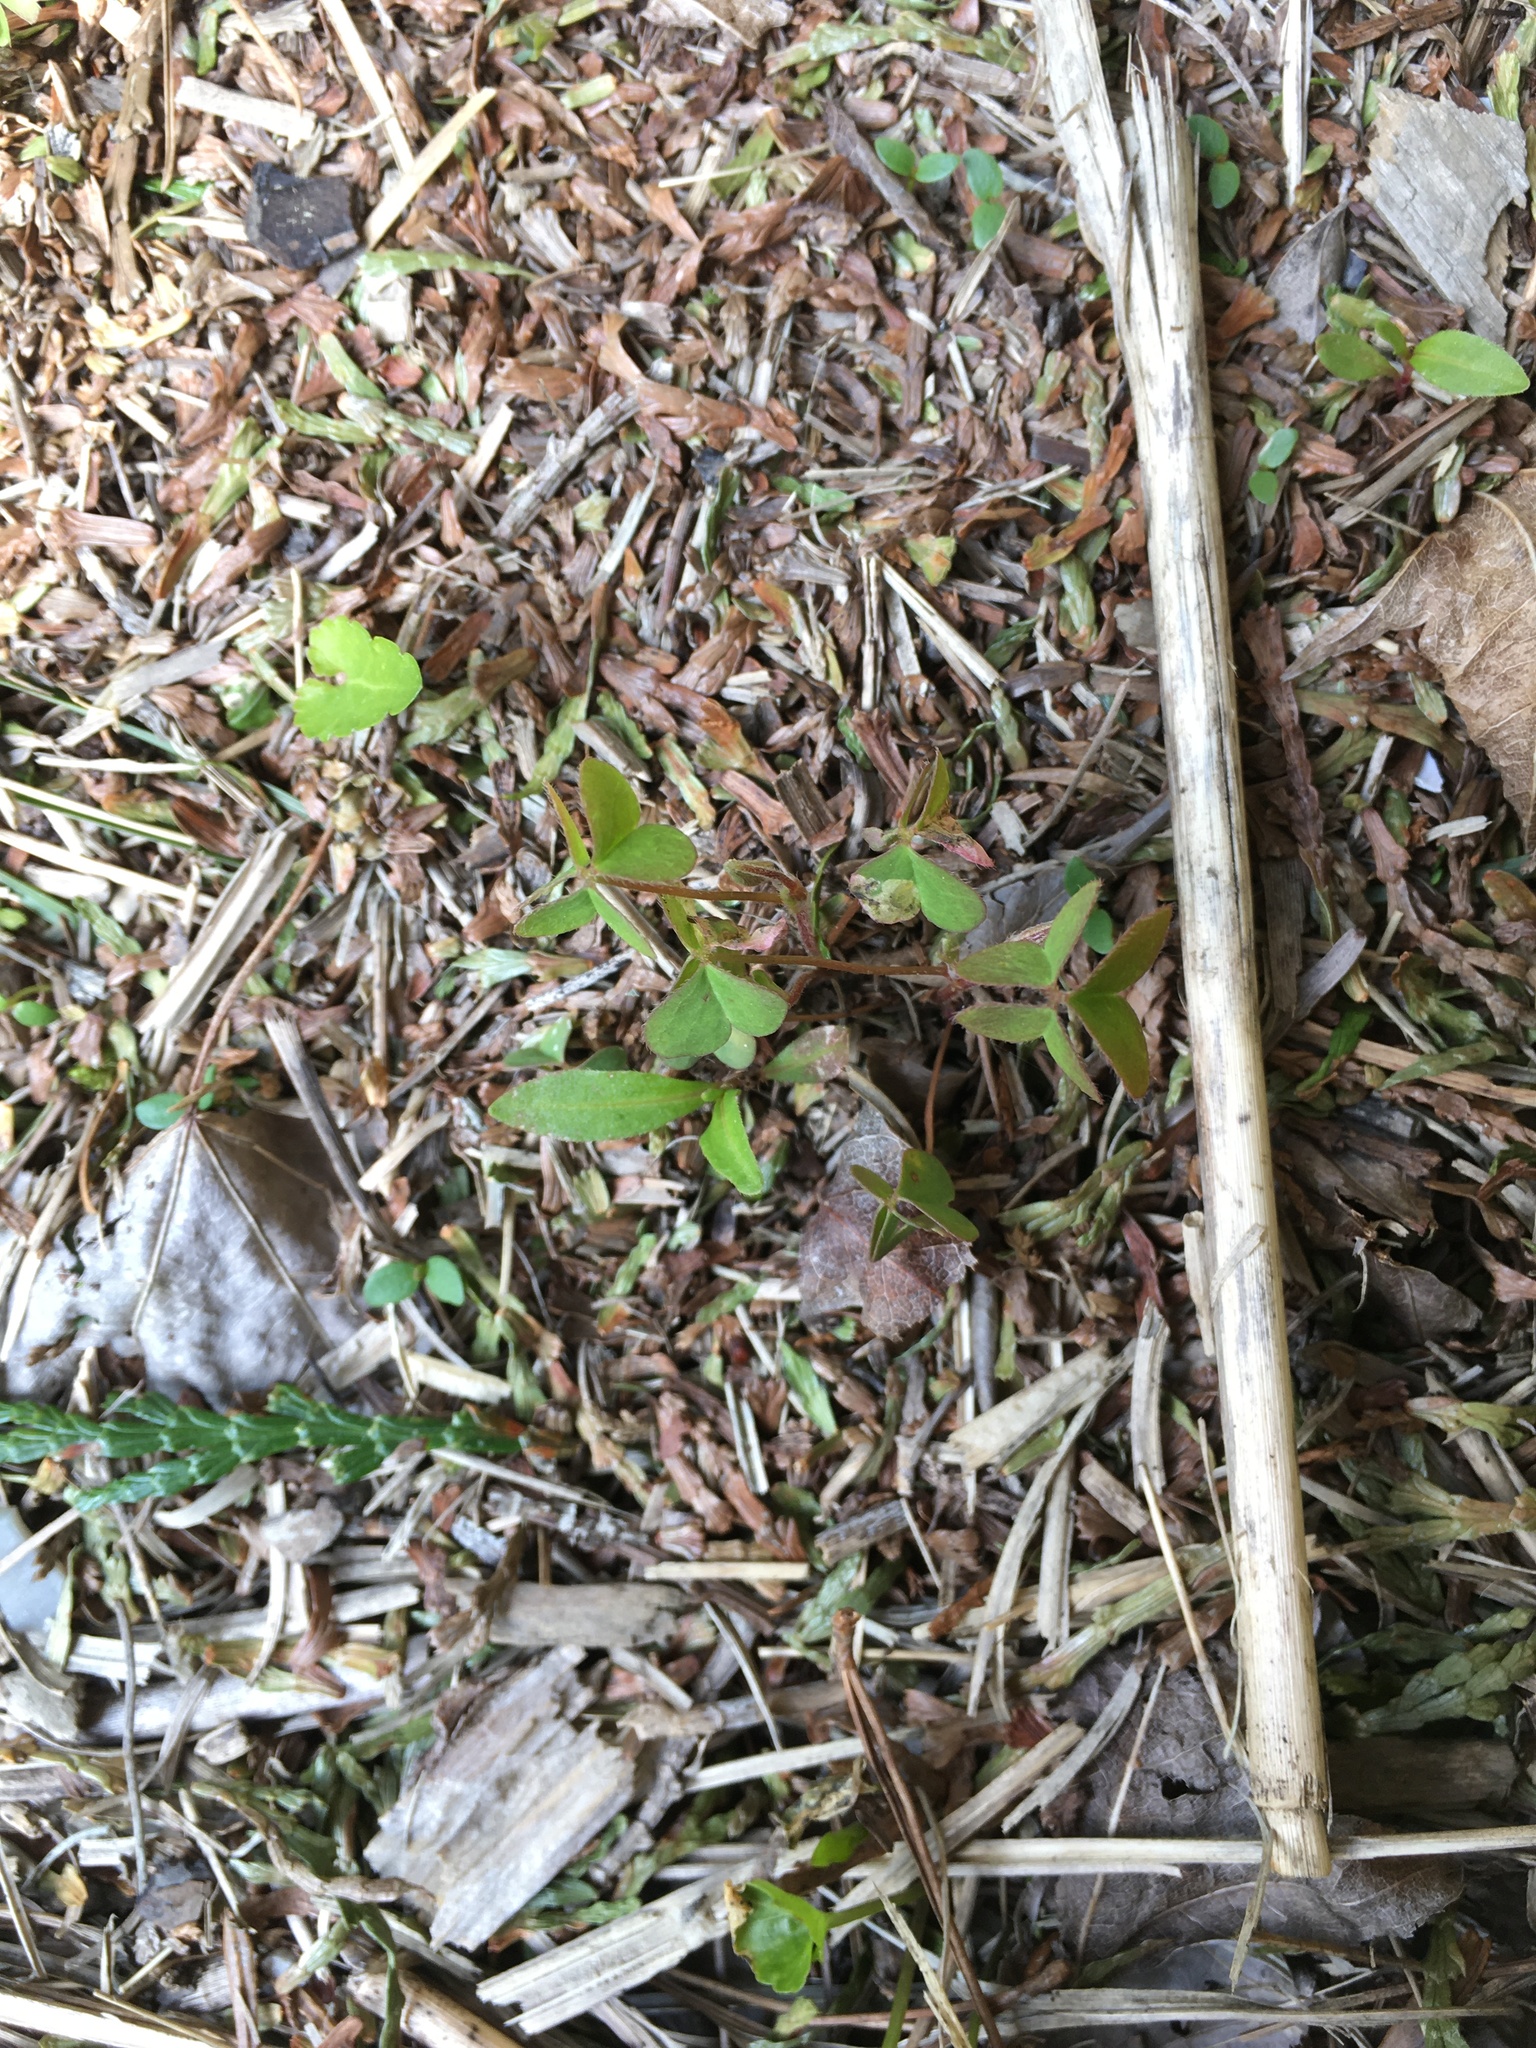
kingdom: Plantae
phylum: Tracheophyta
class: Magnoliopsida
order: Oxalidales
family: Oxalidaceae
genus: Oxalis
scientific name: Oxalis corniculata
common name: Procumbent yellow-sorrel
